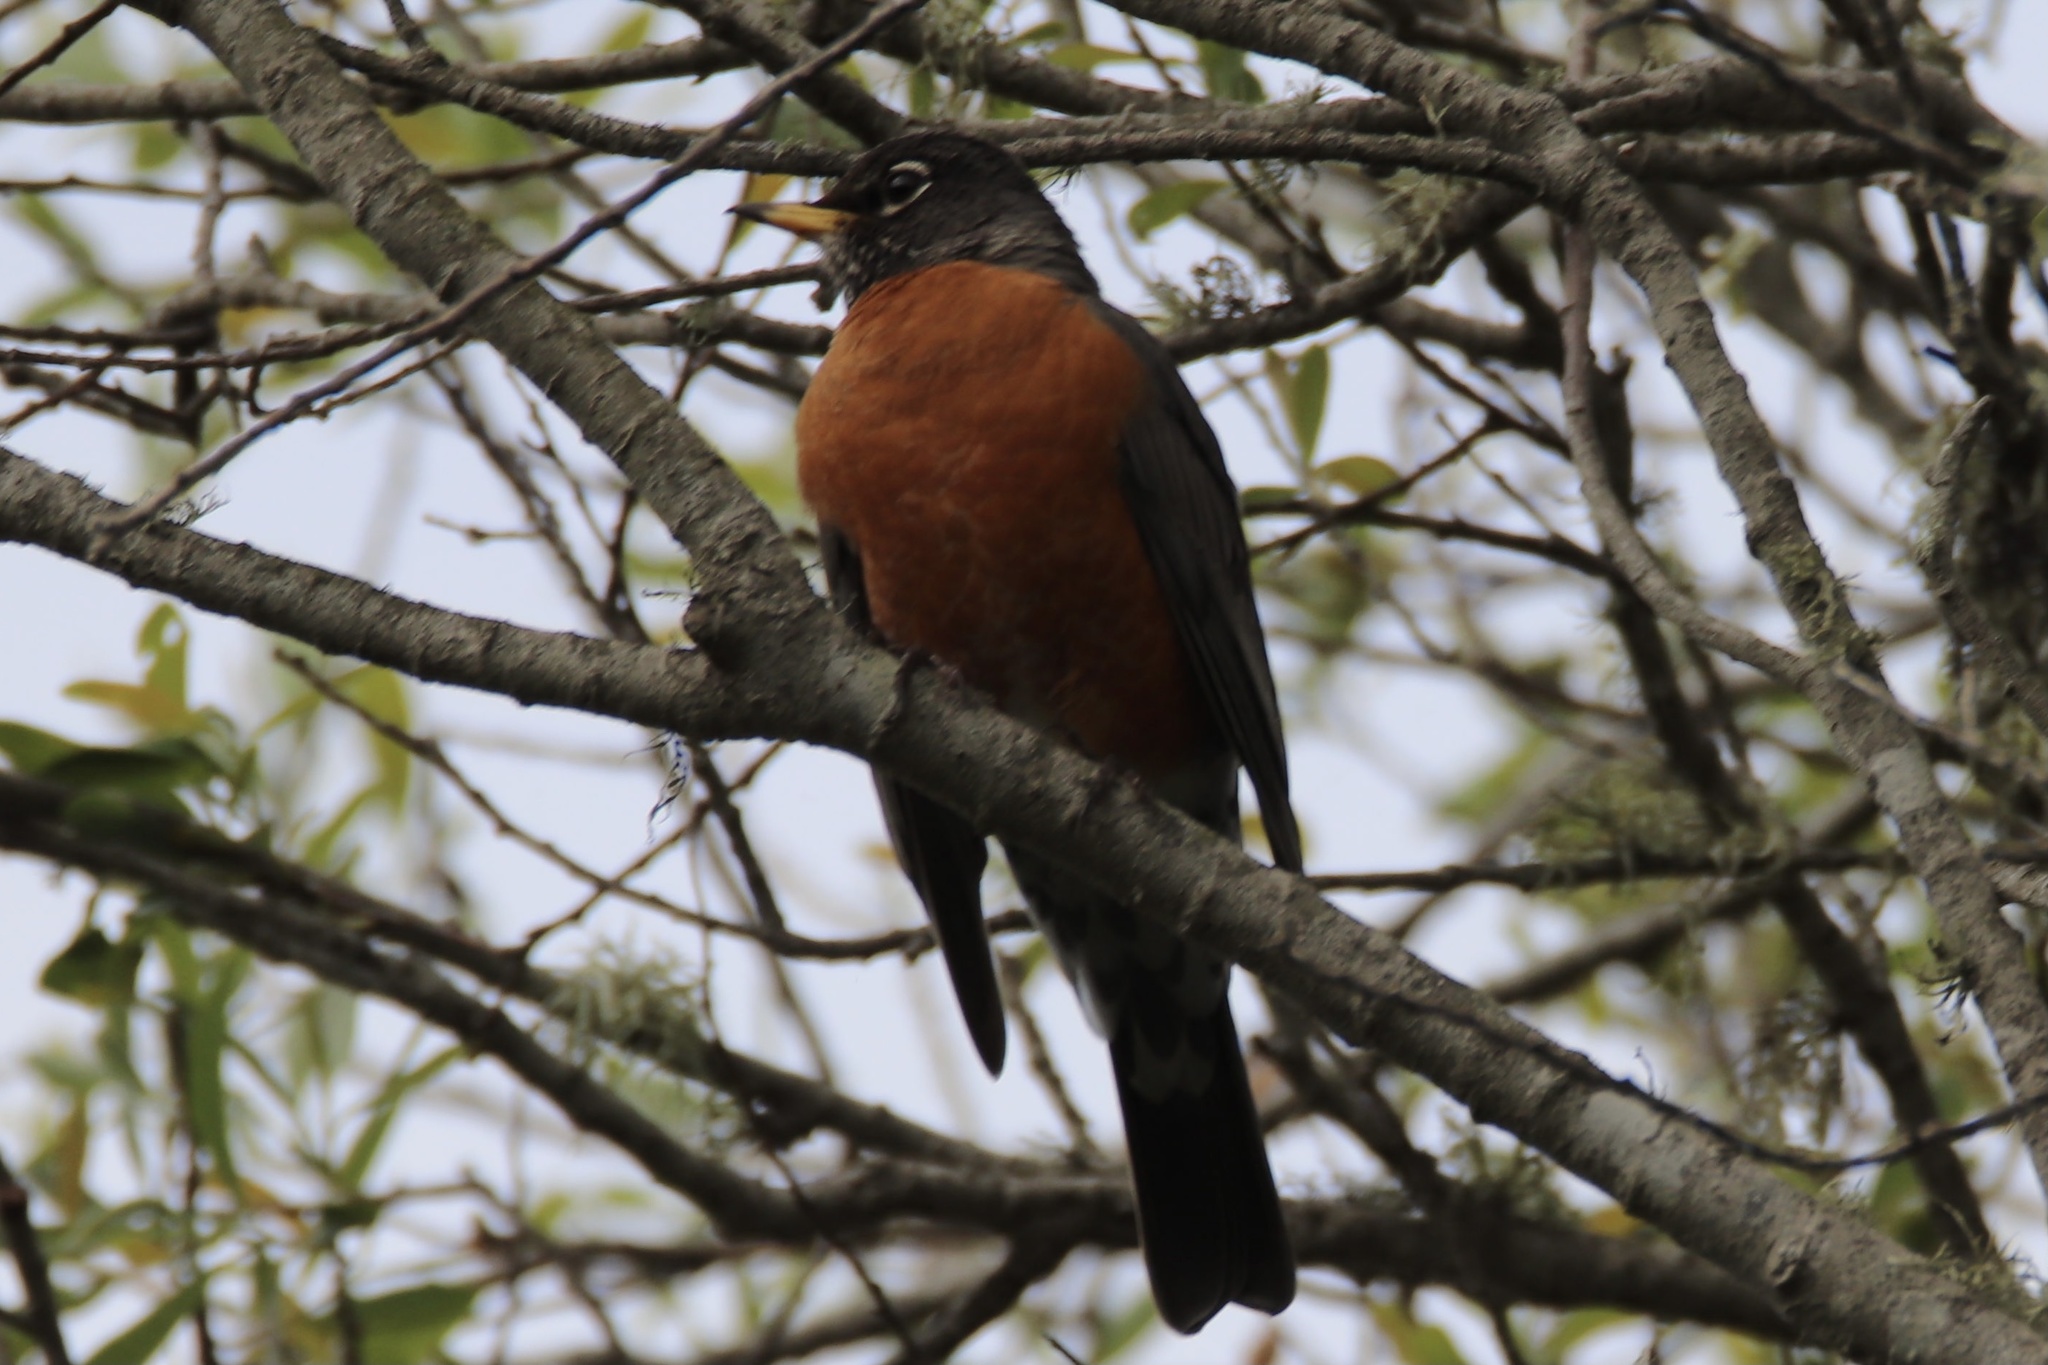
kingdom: Animalia
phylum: Chordata
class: Aves
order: Passeriformes
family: Turdidae
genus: Turdus
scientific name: Turdus migratorius
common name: American robin
